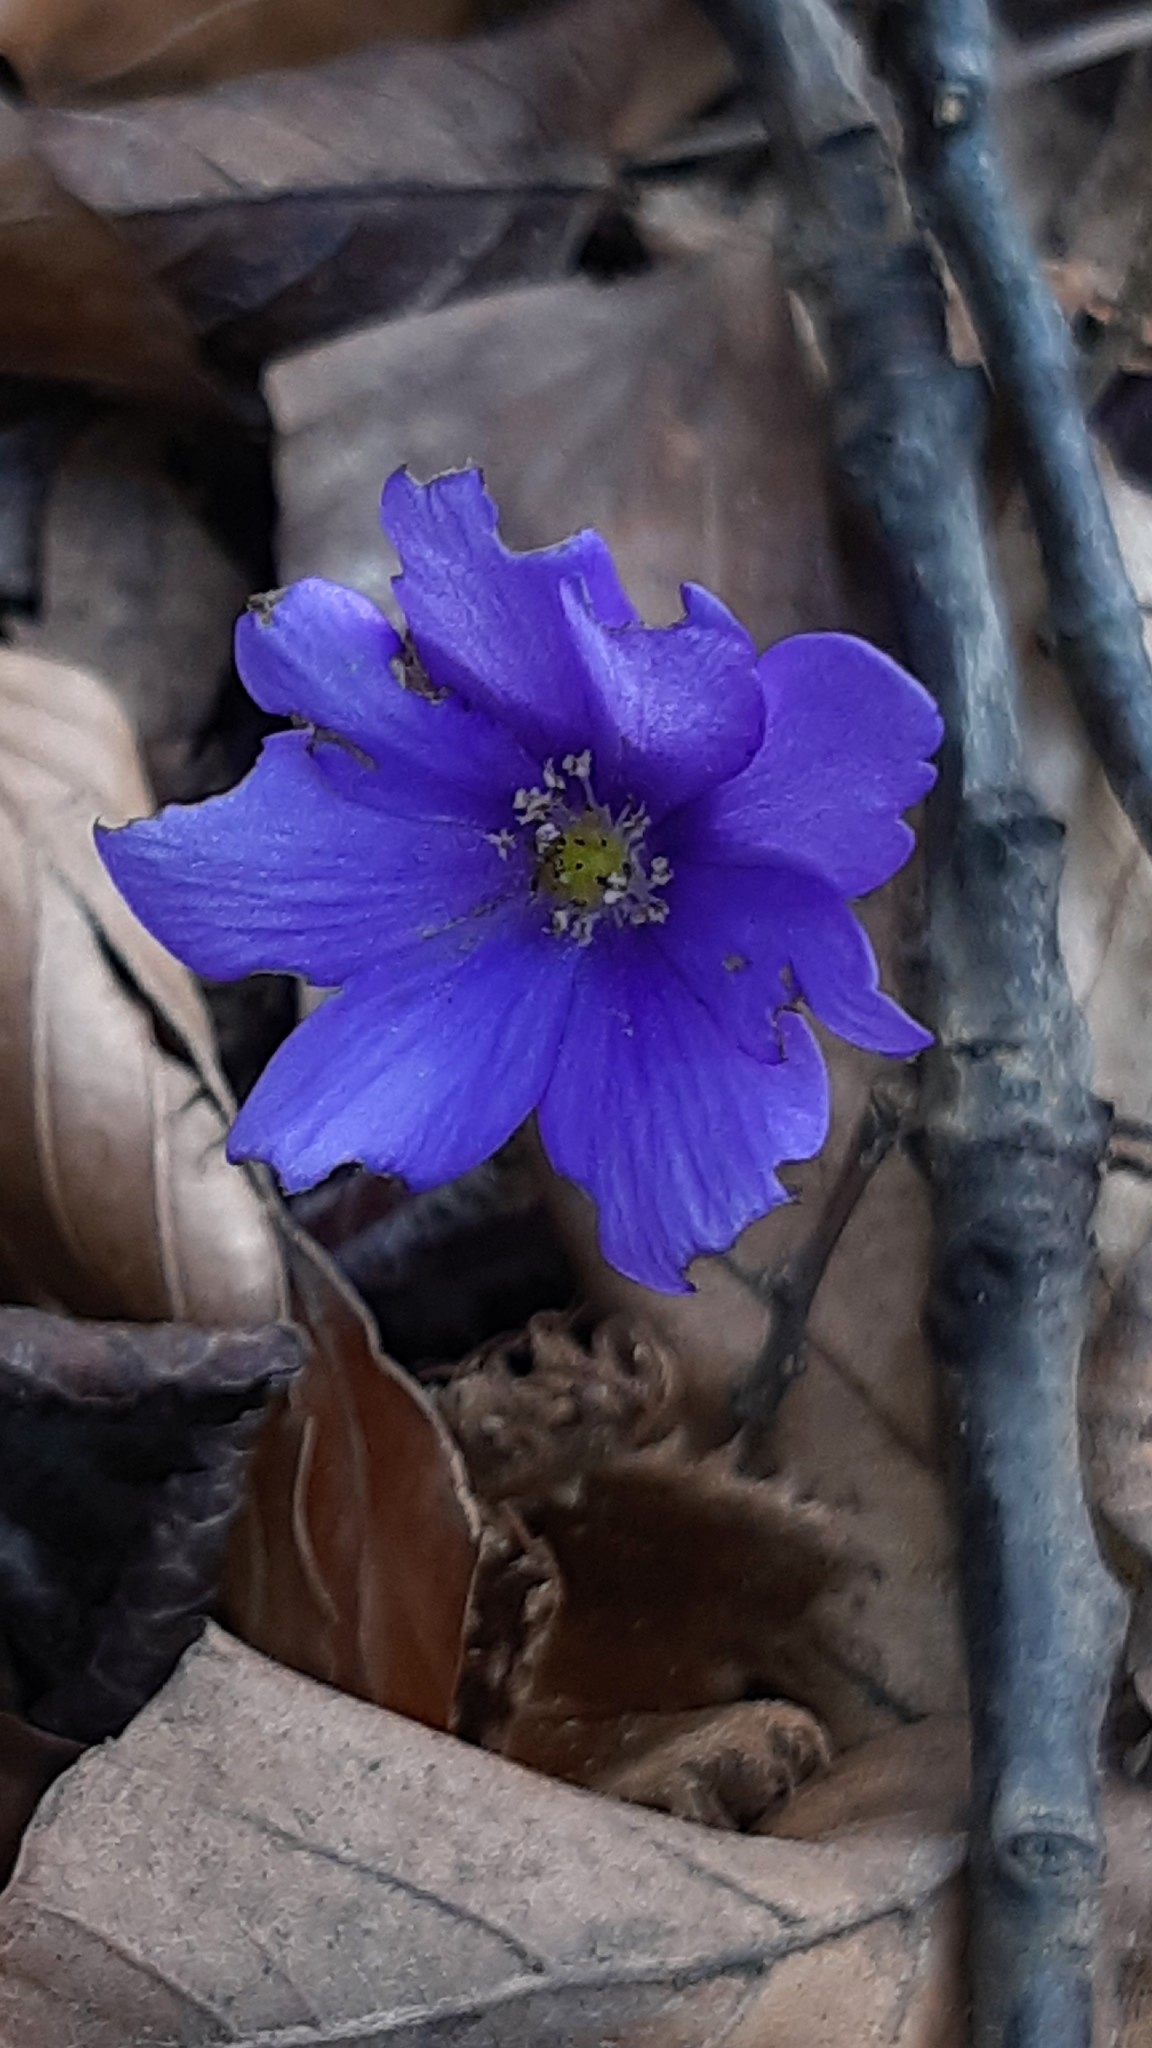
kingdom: Plantae
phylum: Tracheophyta
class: Magnoliopsida
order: Ranunculales
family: Ranunculaceae
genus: Hepatica
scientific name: Hepatica nobilis
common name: Liverleaf
